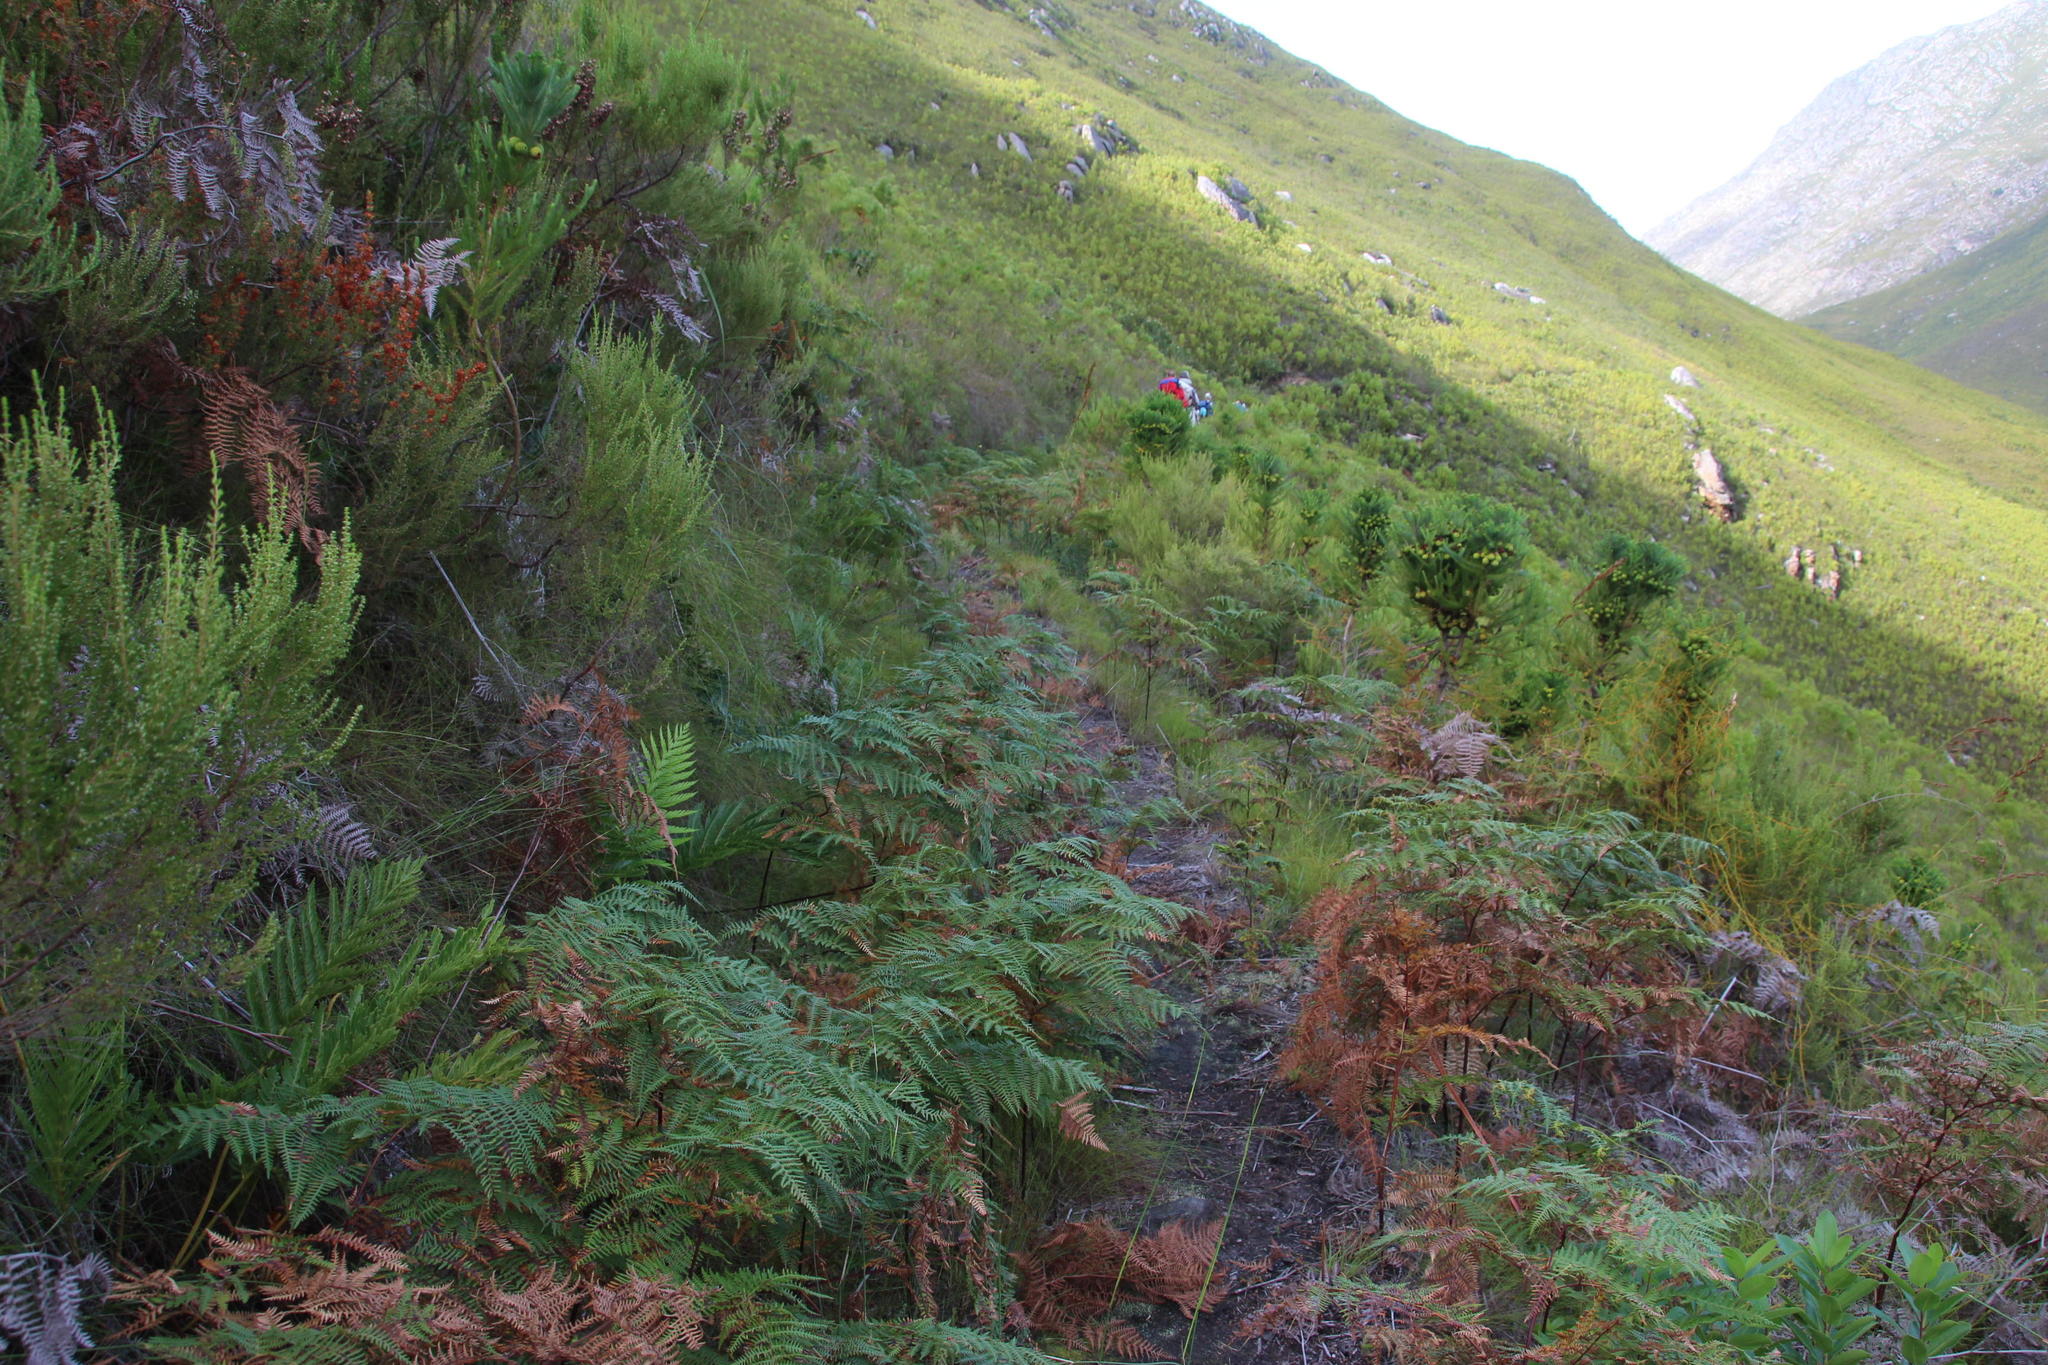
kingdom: Plantae
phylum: Tracheophyta
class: Polypodiopsida
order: Polypodiales
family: Dennstaedtiaceae
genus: Pteridium
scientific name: Pteridium aquilinum
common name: Bracken
